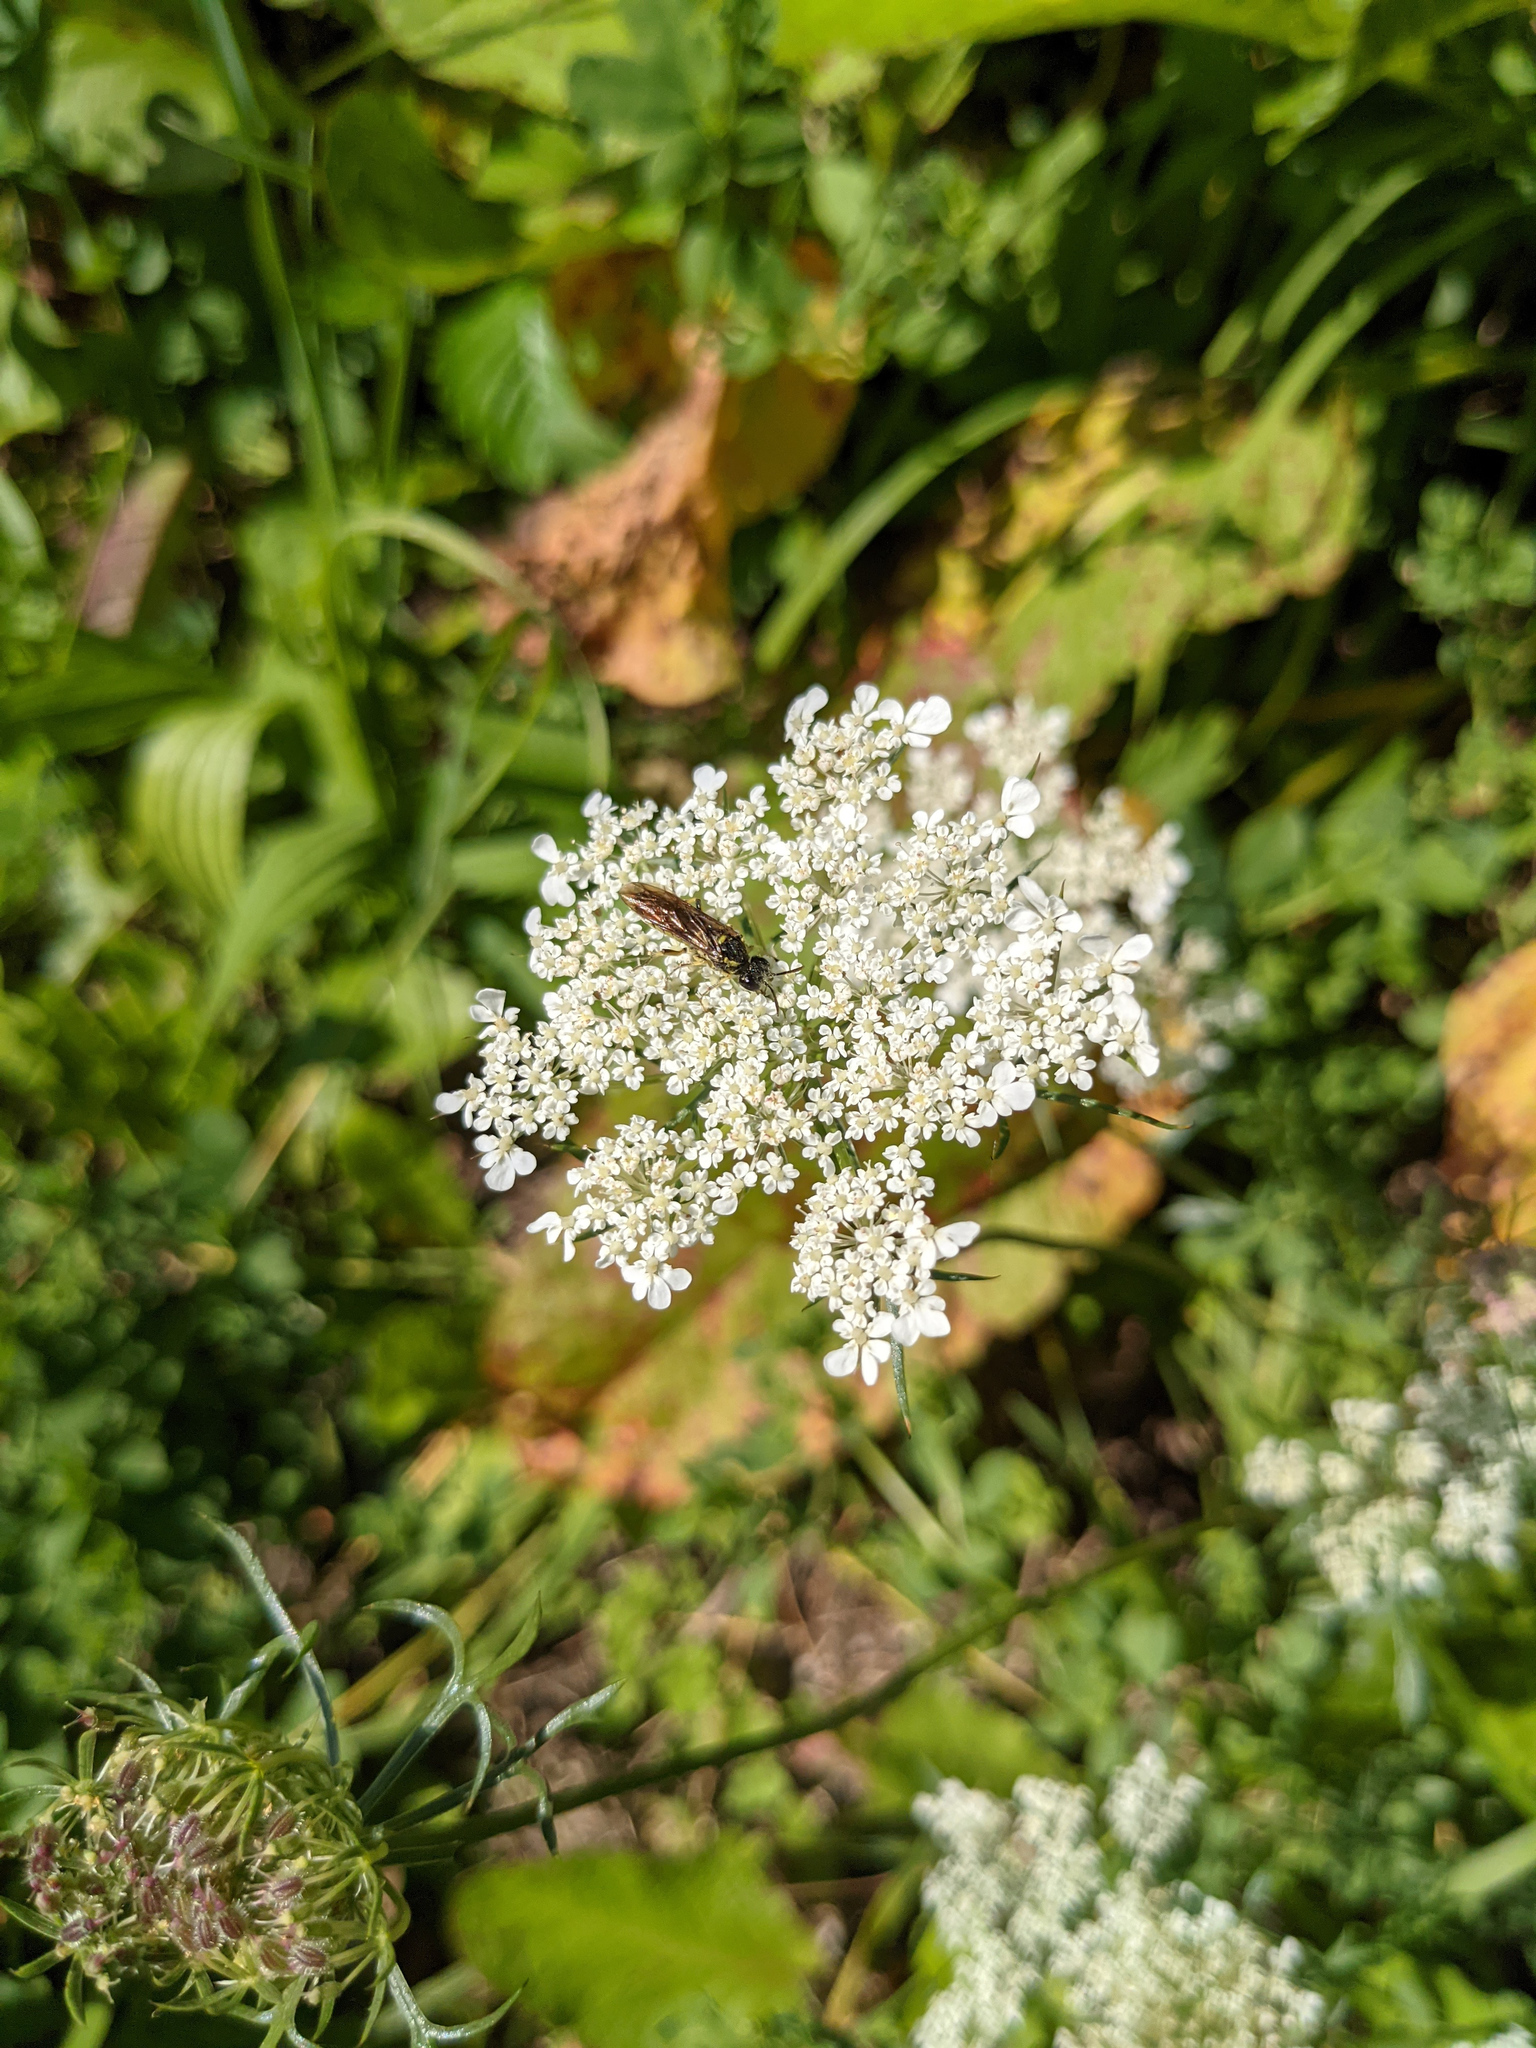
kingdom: Plantae
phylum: Tracheophyta
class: Magnoliopsida
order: Apiales
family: Apiaceae
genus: Daucus
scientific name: Daucus carota
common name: Wild carrot
